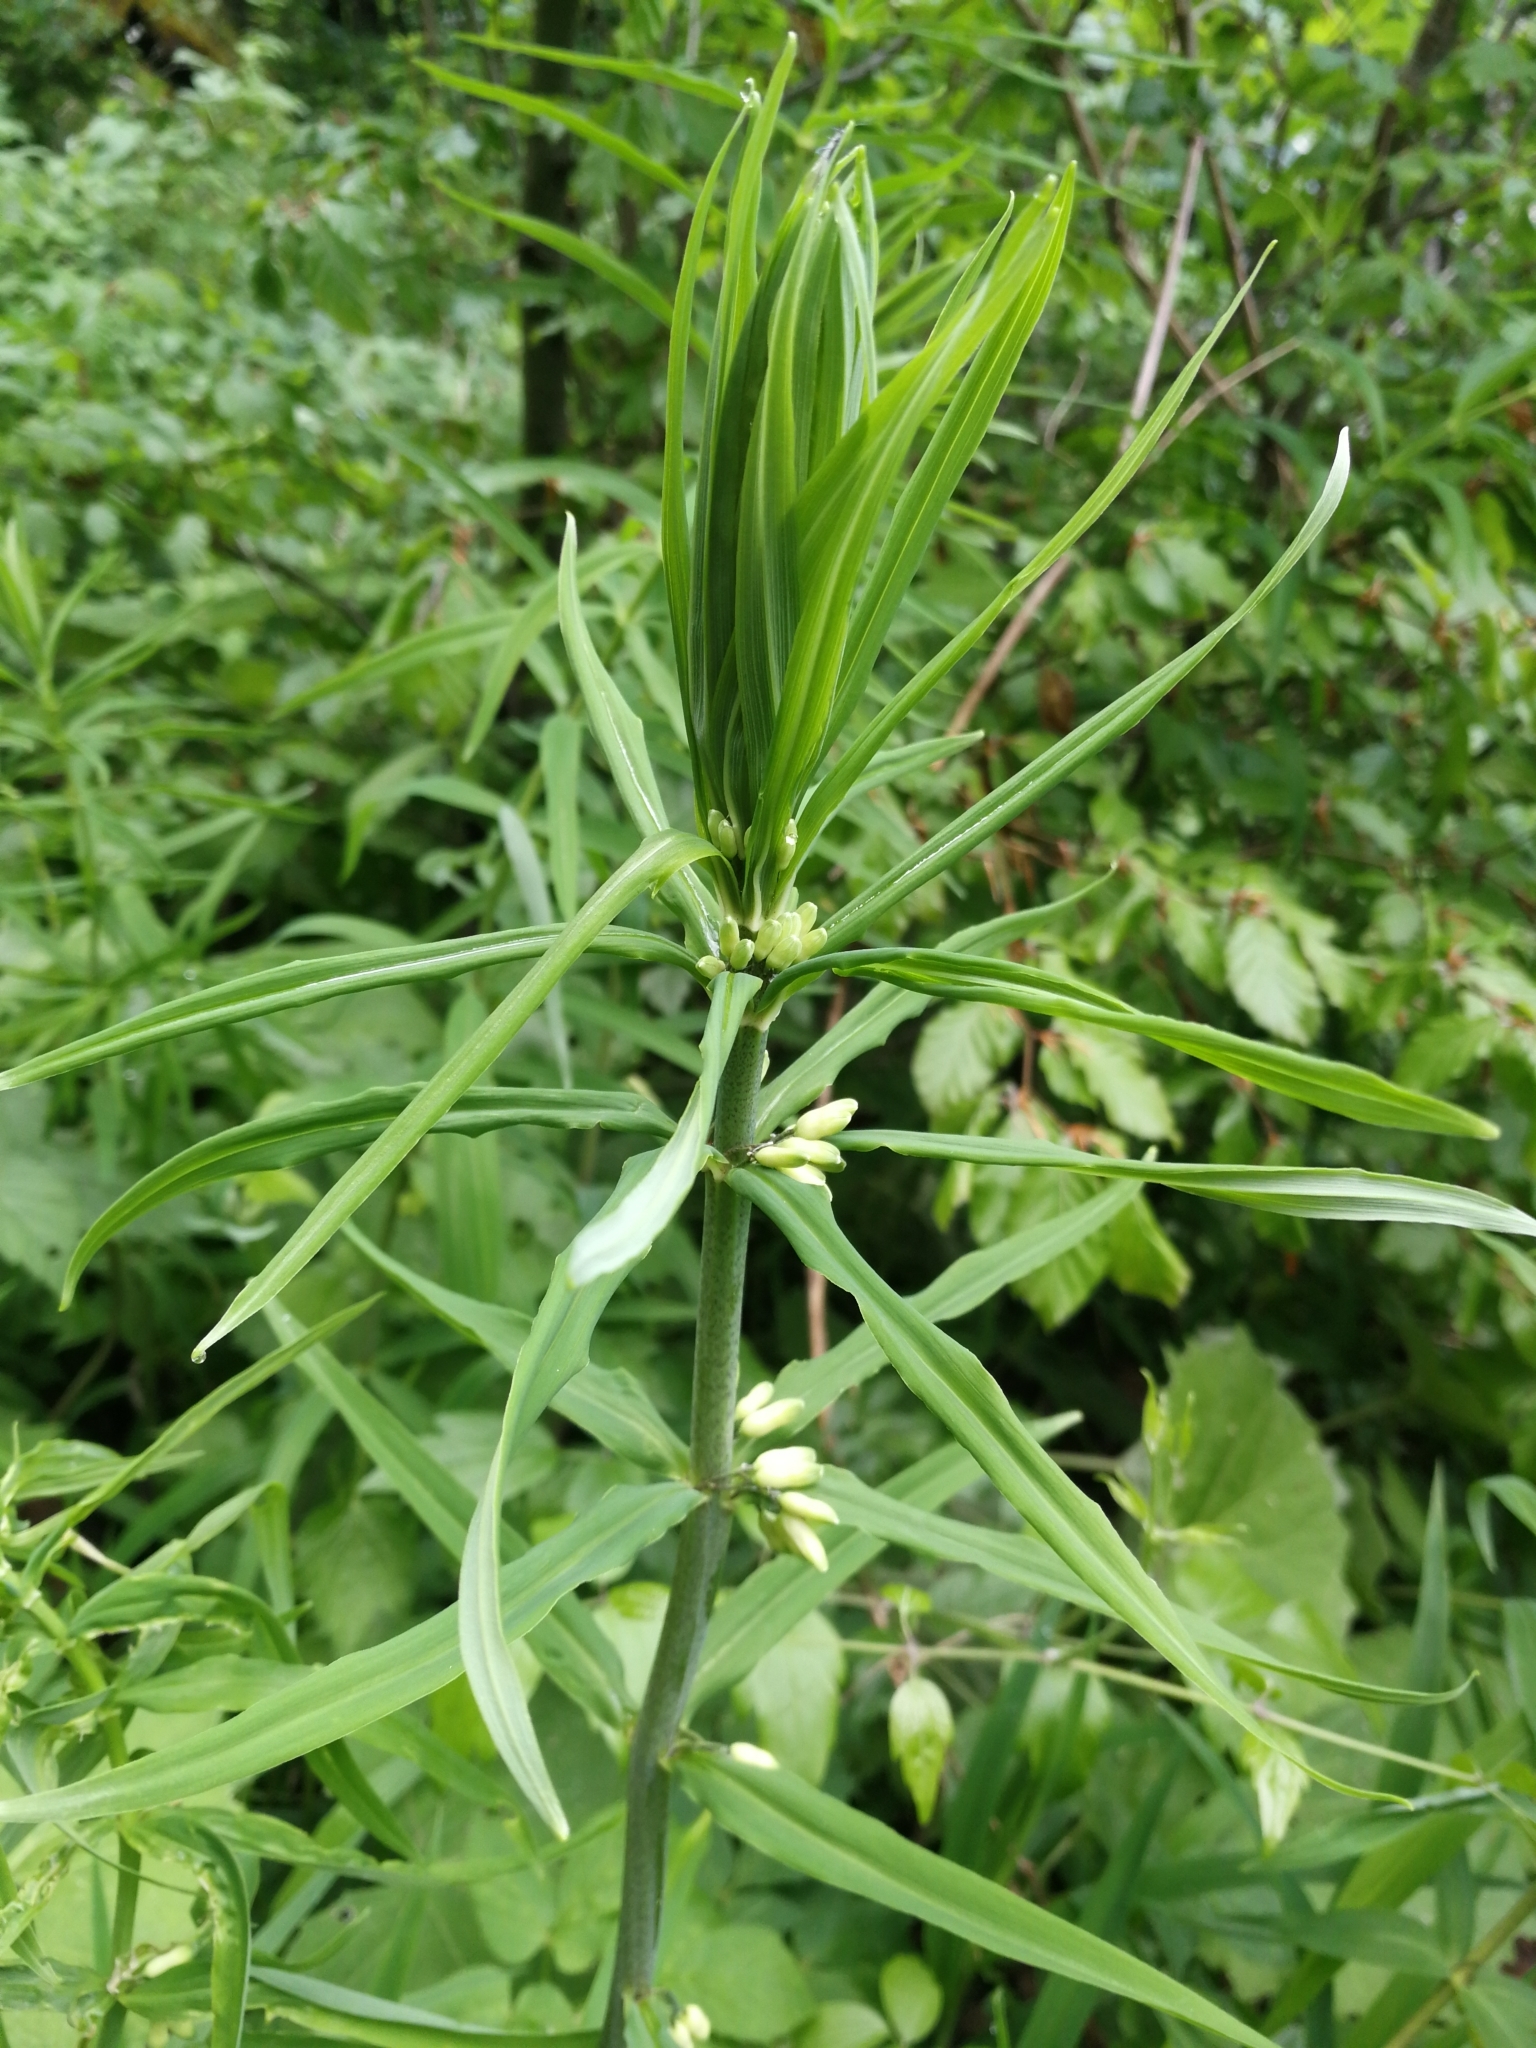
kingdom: Plantae
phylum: Tracheophyta
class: Liliopsida
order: Asparagales
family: Asparagaceae
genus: Polygonatum
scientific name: Polygonatum verticillatum
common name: Whorled solomon's-seal
